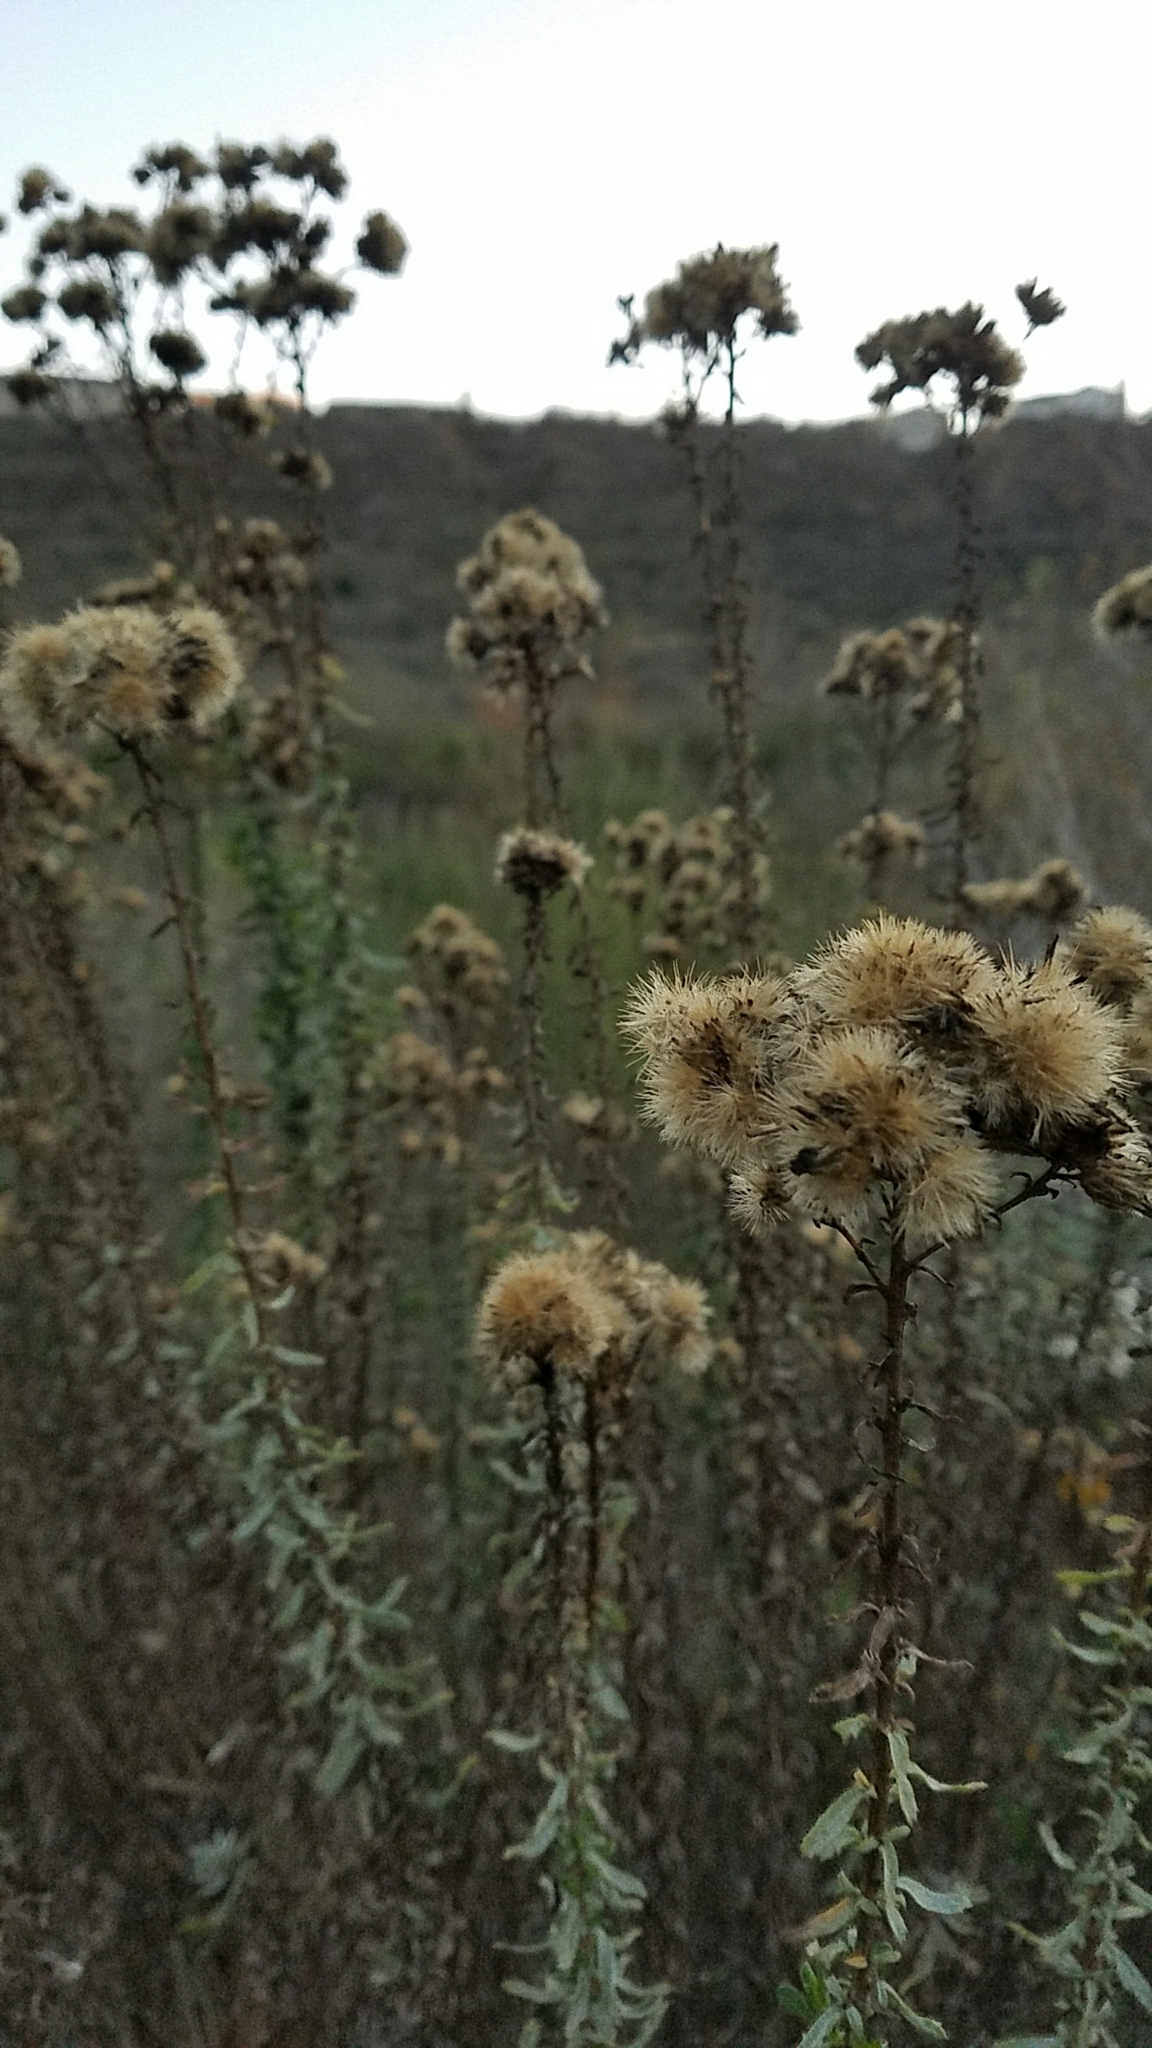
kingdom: Plantae
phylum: Tracheophyta
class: Magnoliopsida
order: Asterales
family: Asteraceae
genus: Isocoma
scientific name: Isocoma menziesii
